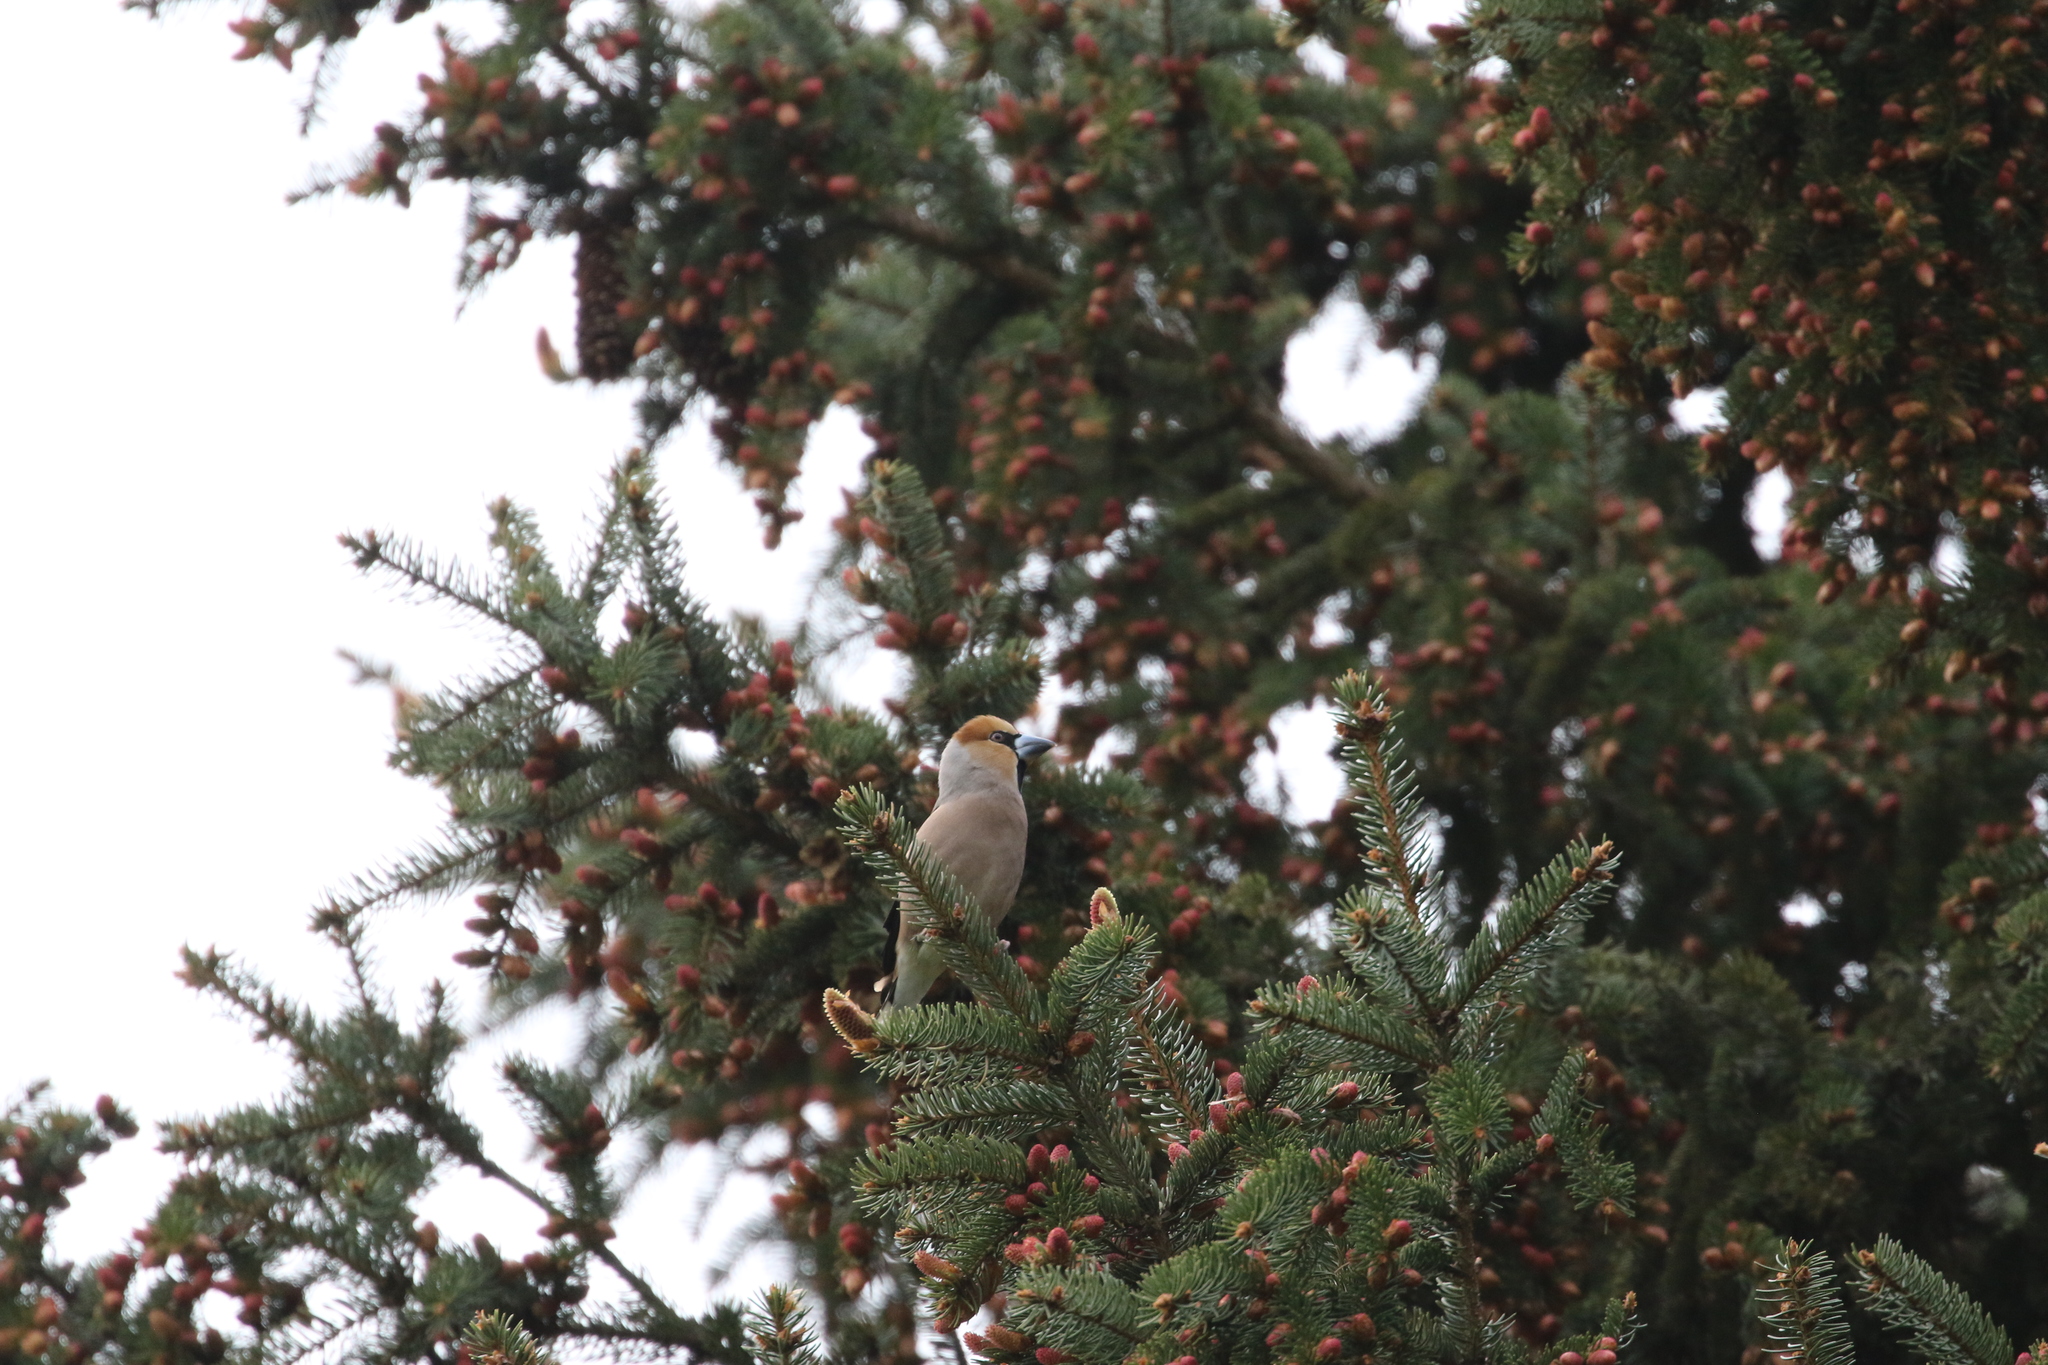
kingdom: Animalia
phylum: Chordata
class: Aves
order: Passeriformes
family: Fringillidae
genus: Coccothraustes
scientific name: Coccothraustes coccothraustes
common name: Hawfinch
